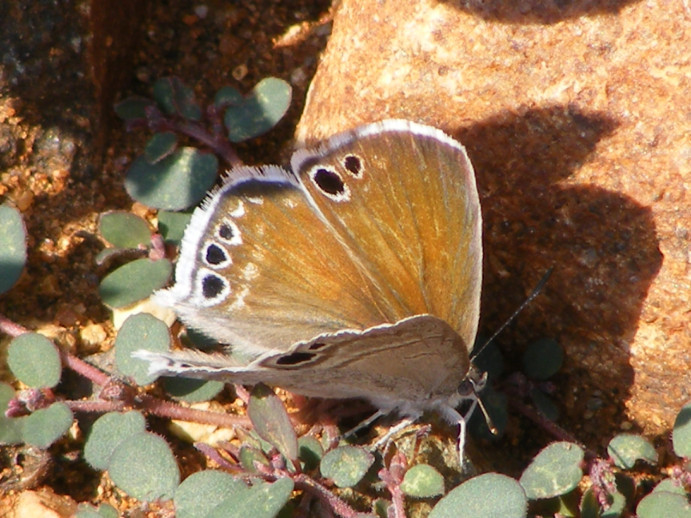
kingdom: Animalia
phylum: Arthropoda
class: Insecta
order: Lepidoptera
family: Lycaenidae
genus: Leptomyrina
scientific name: Leptomyrina gorgias
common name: Common black-eye
